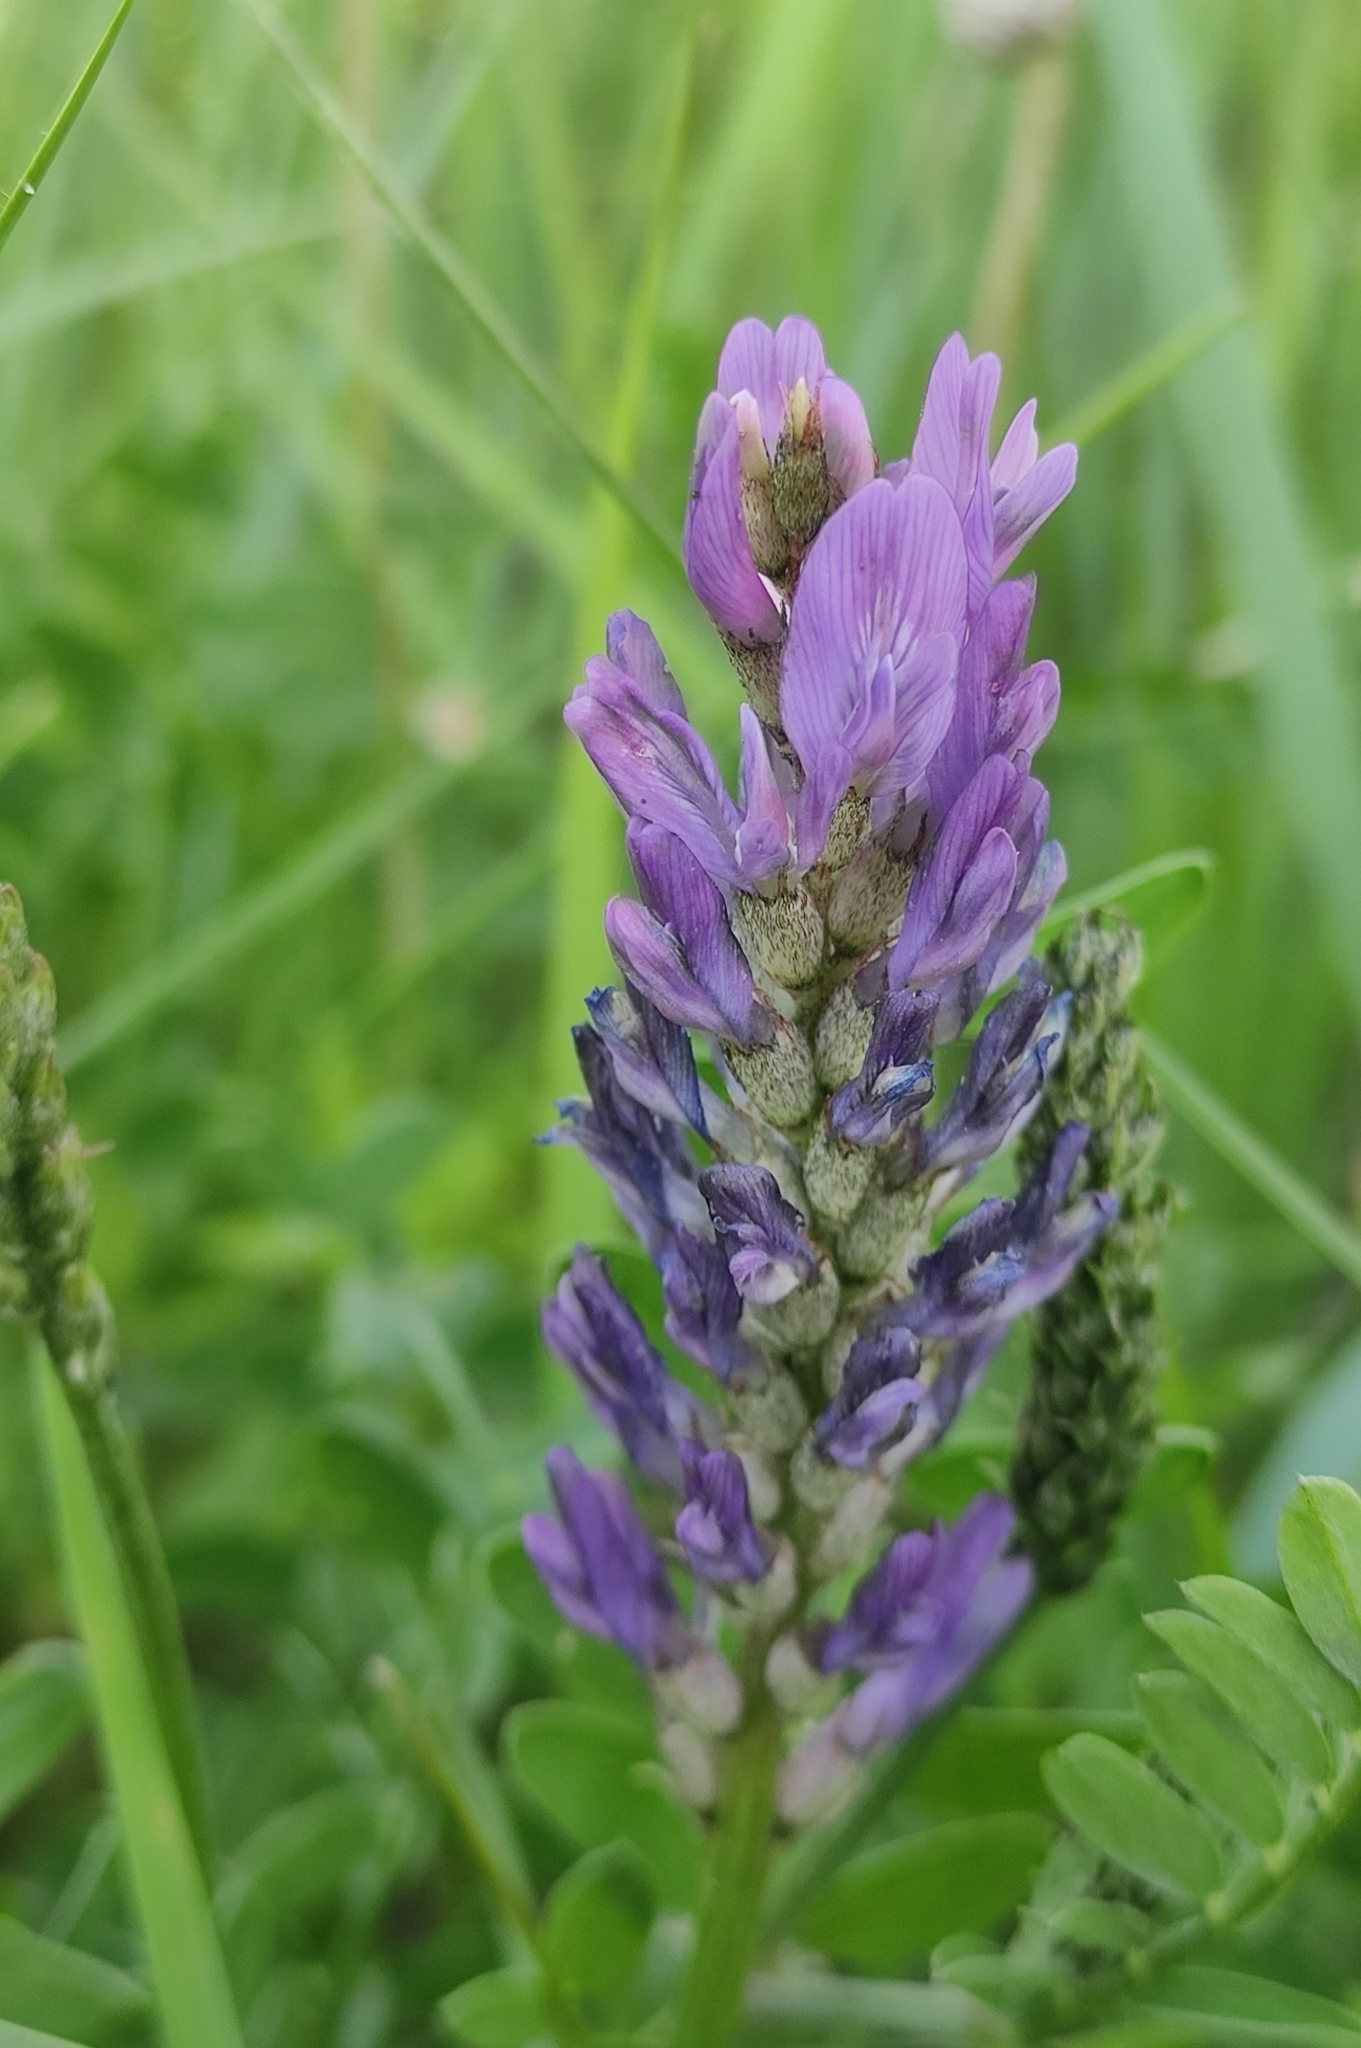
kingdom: Plantae
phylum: Tracheophyta
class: Magnoliopsida
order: Fabales
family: Fabaceae
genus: Astragalus
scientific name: Astragalus laxmannii
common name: Laxmann's milk-vetch
